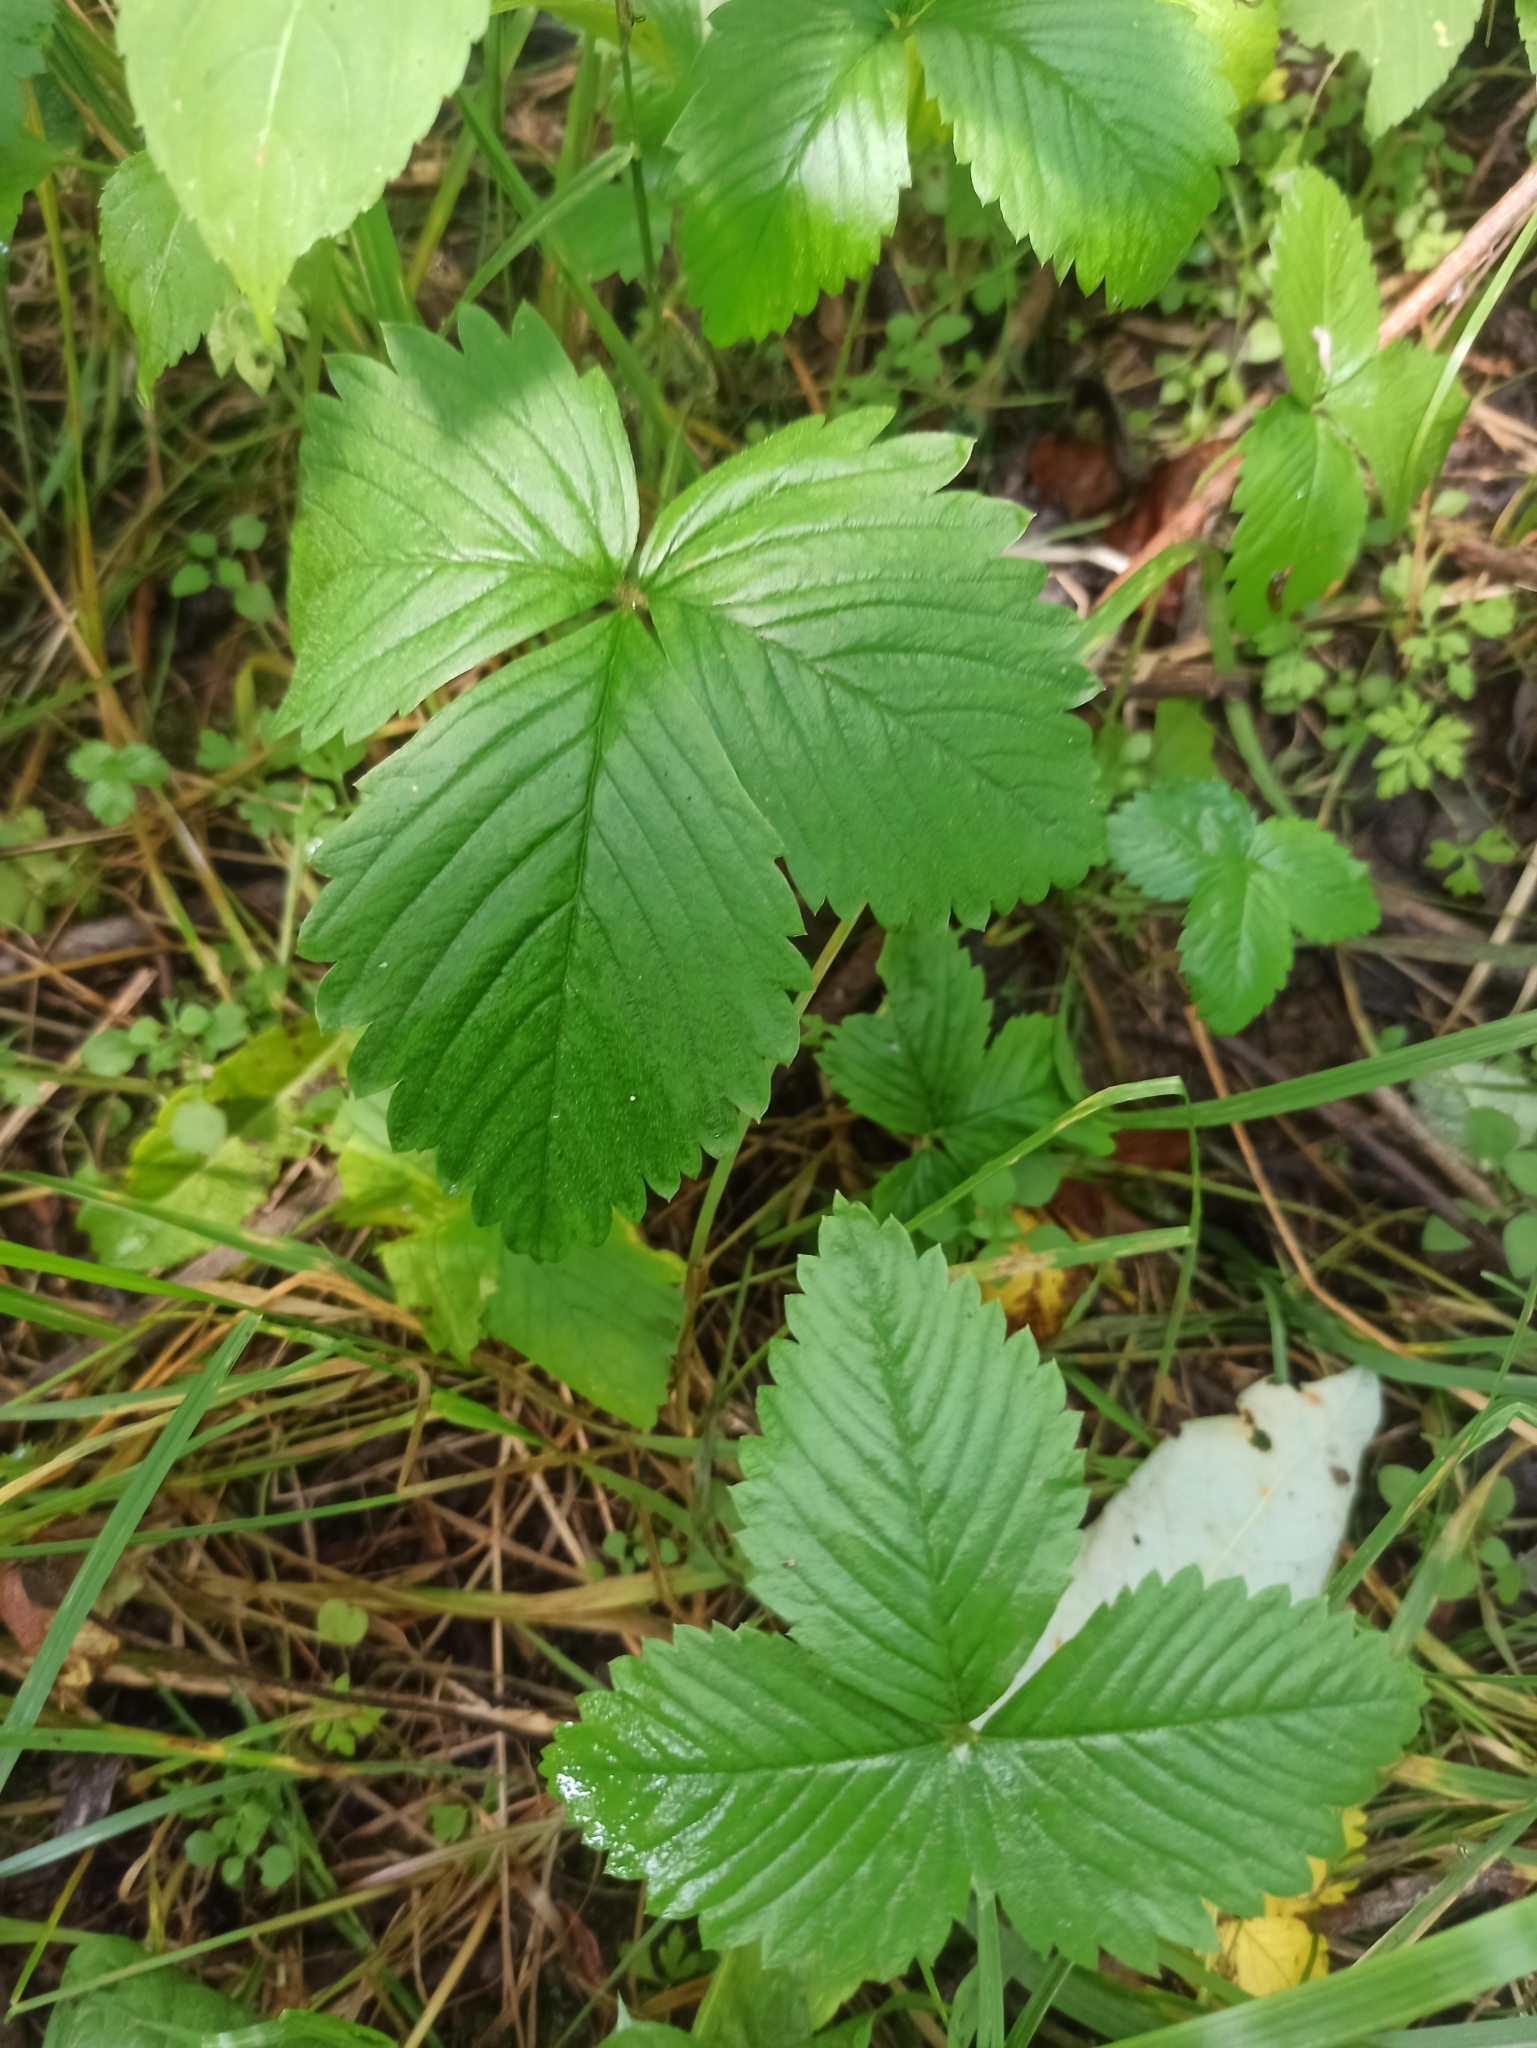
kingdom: Plantae
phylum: Tracheophyta
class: Magnoliopsida
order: Rosales
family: Rosaceae
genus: Fragaria
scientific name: Fragaria vesca
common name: Wild strawberry
